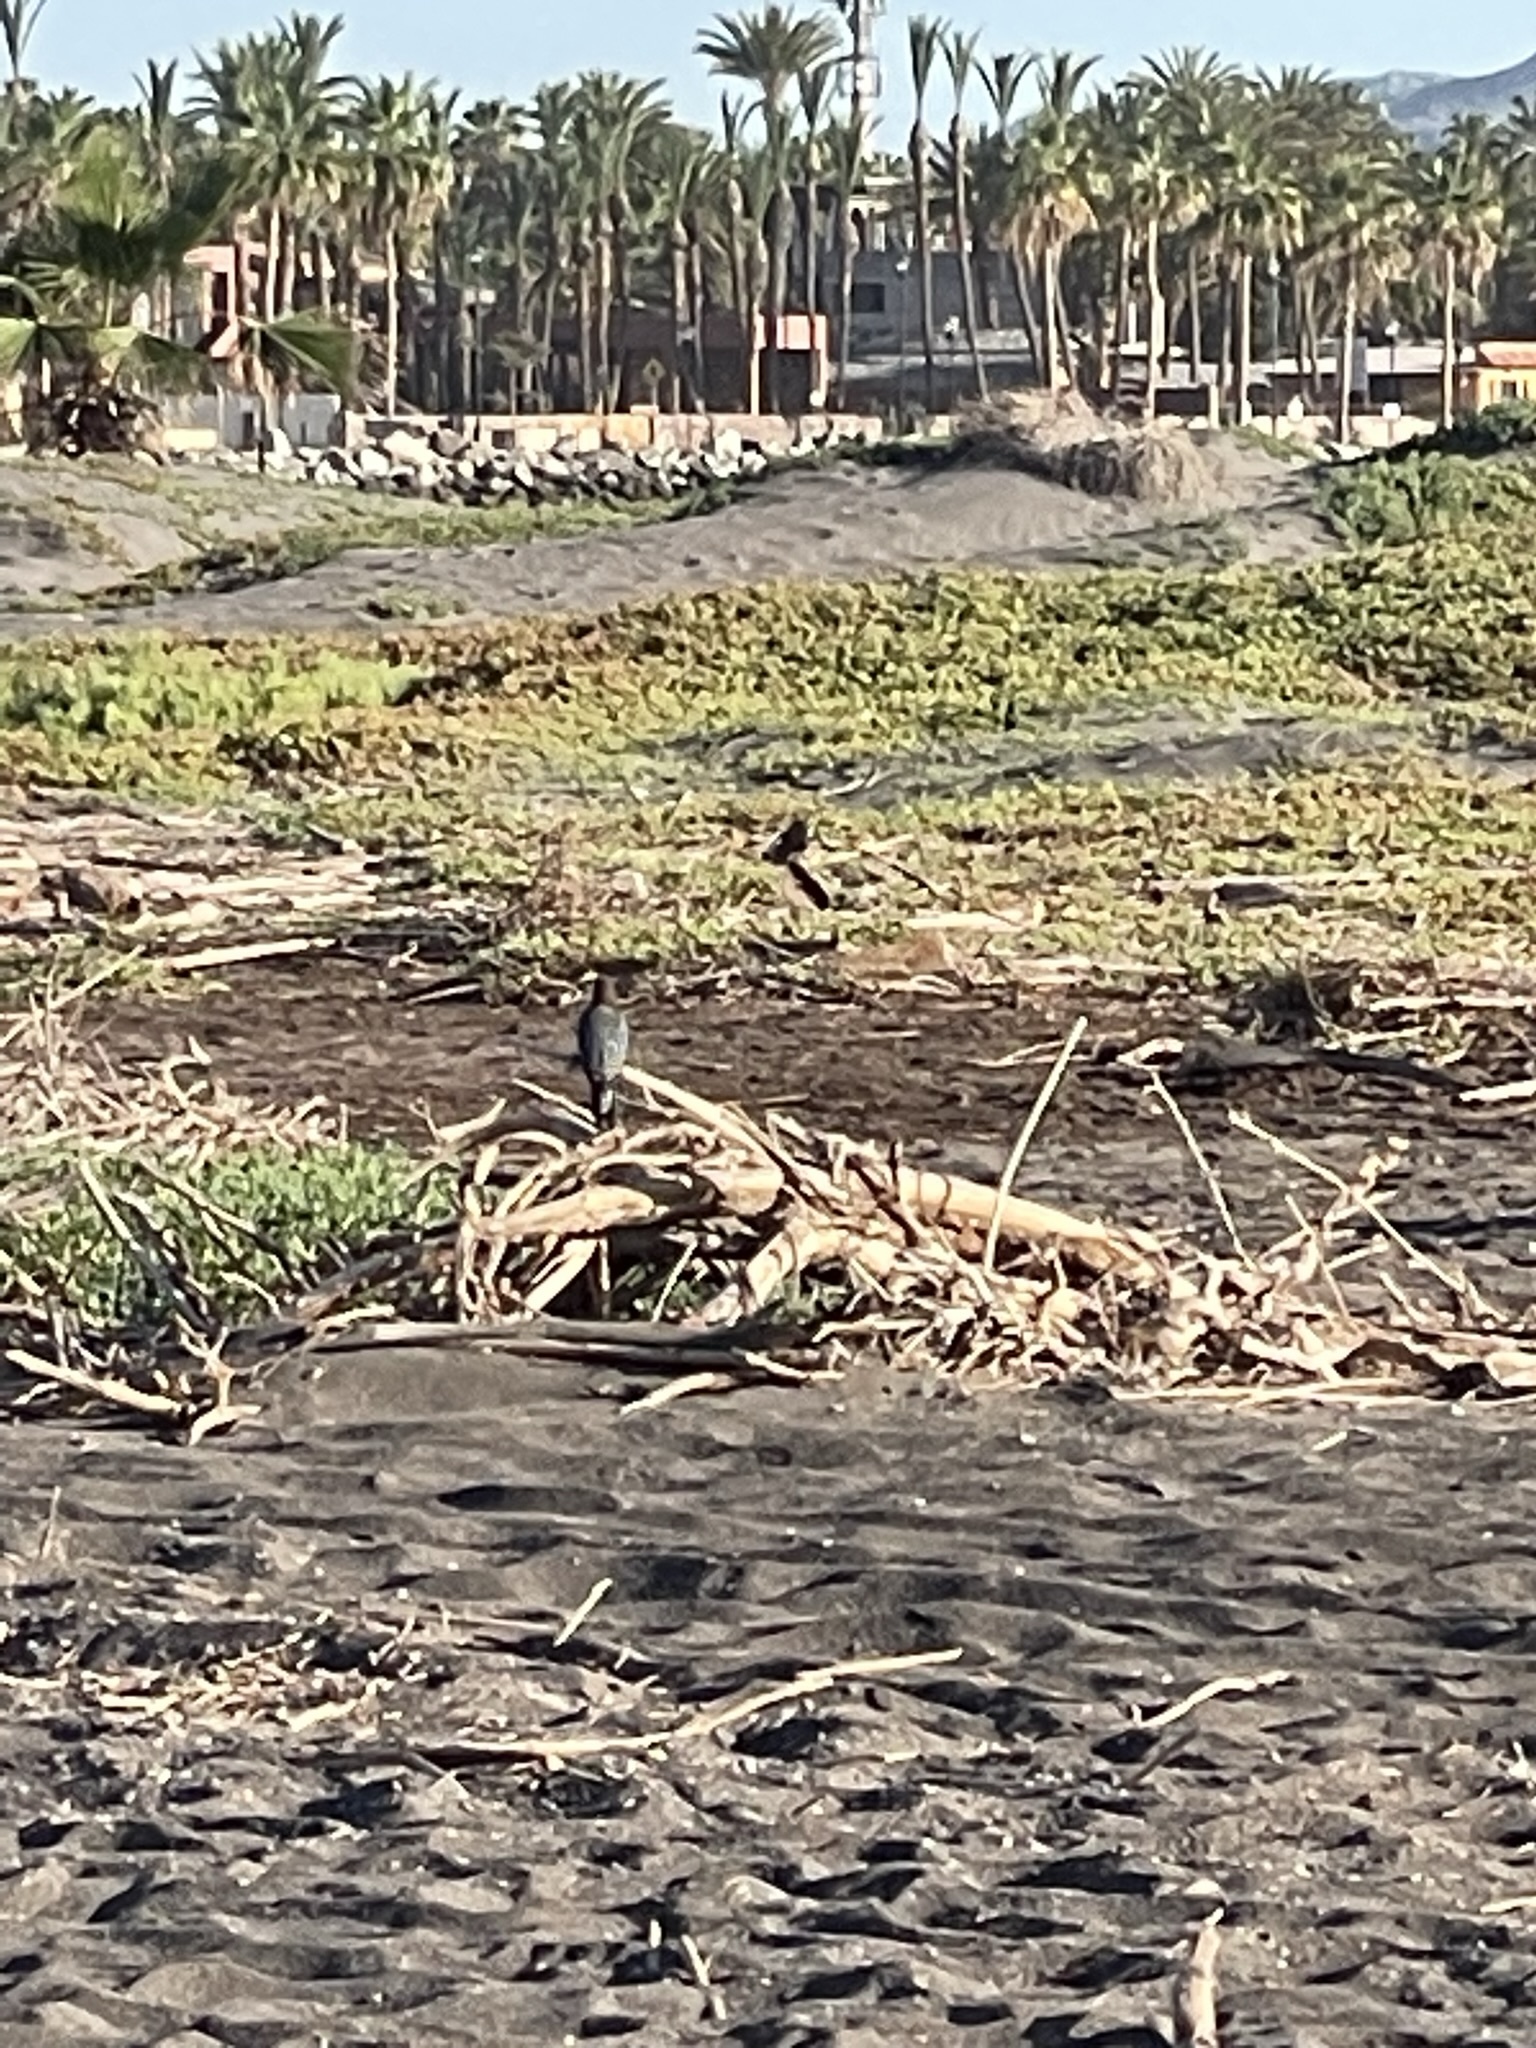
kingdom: Animalia
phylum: Chordata
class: Aves
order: Piciformes
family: Picidae
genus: Melanerpes
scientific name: Melanerpes uropygialis
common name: Gila woodpecker
